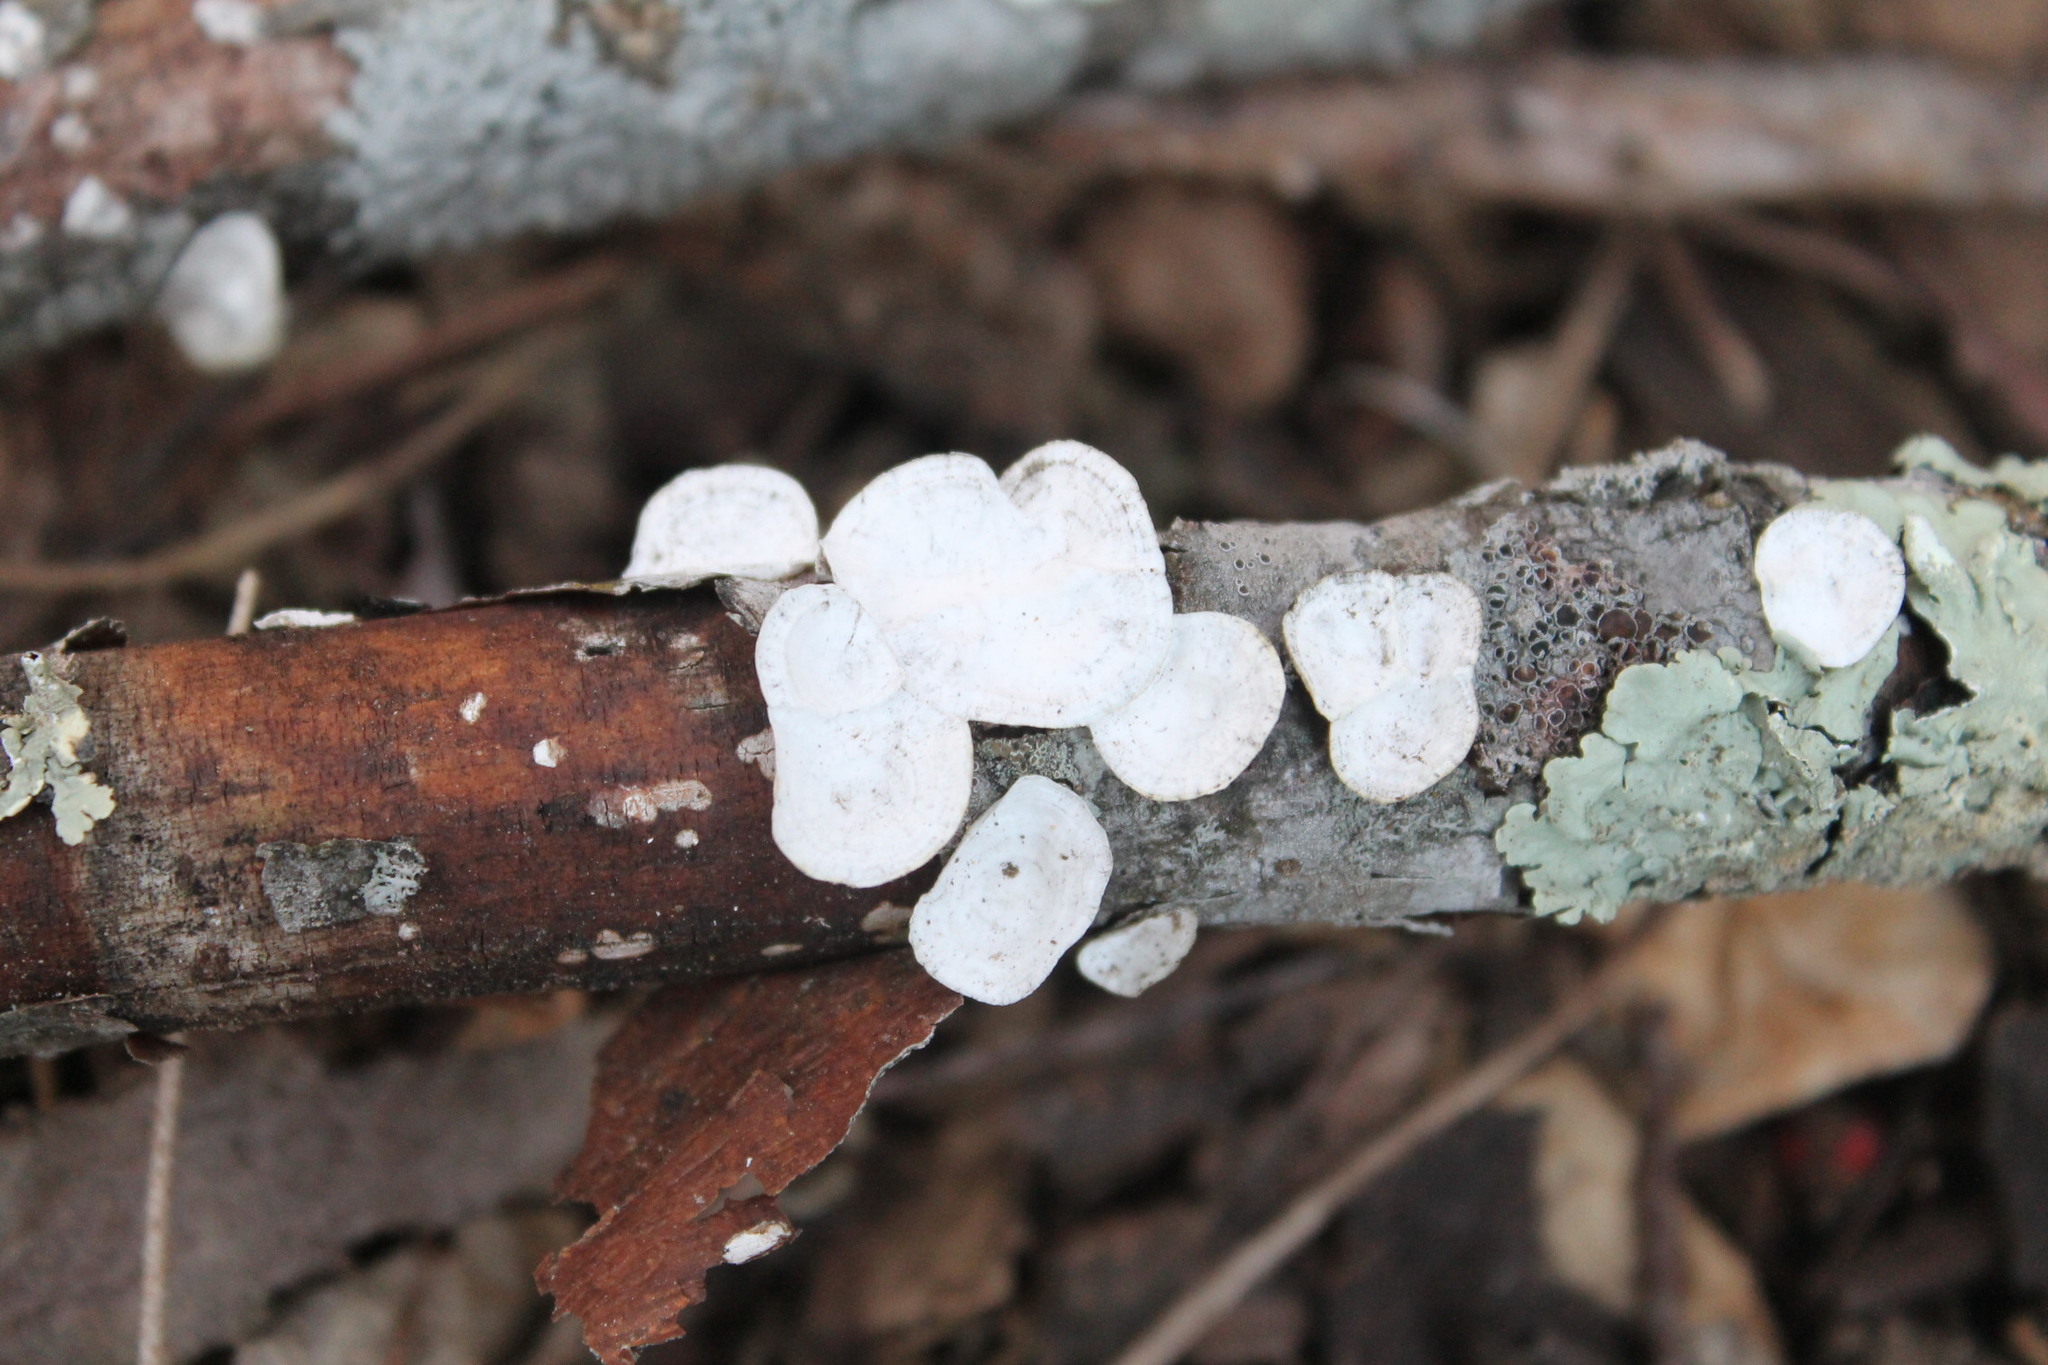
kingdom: Fungi
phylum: Basidiomycota
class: Agaricomycetes
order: Polyporales
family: Polyporaceae
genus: Poronidulus
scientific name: Poronidulus conchifer
